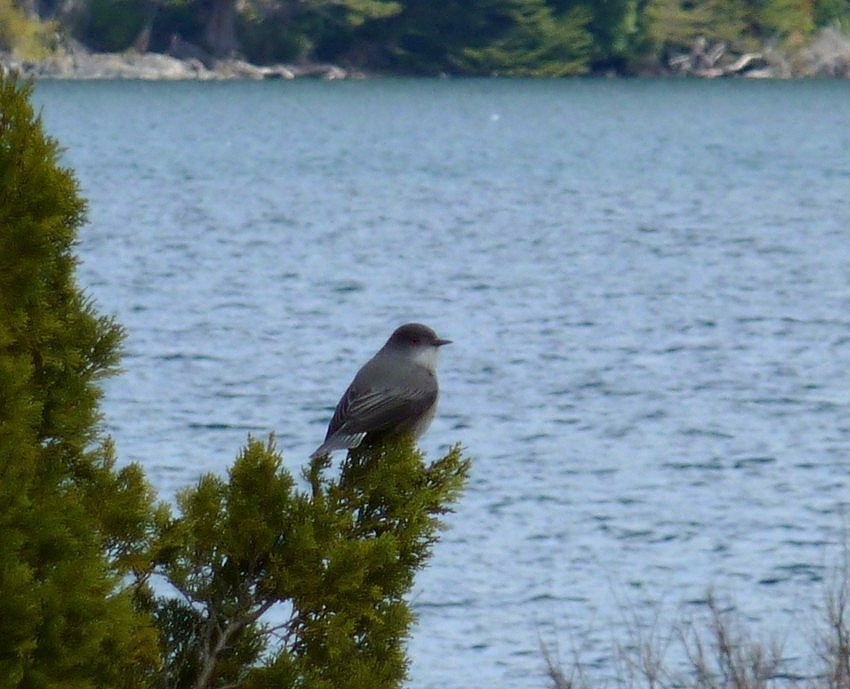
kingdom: Animalia
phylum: Chordata
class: Aves
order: Passeriformes
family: Tyrannidae
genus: Xolmis
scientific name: Xolmis pyrope
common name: Fire-eyed diucon
